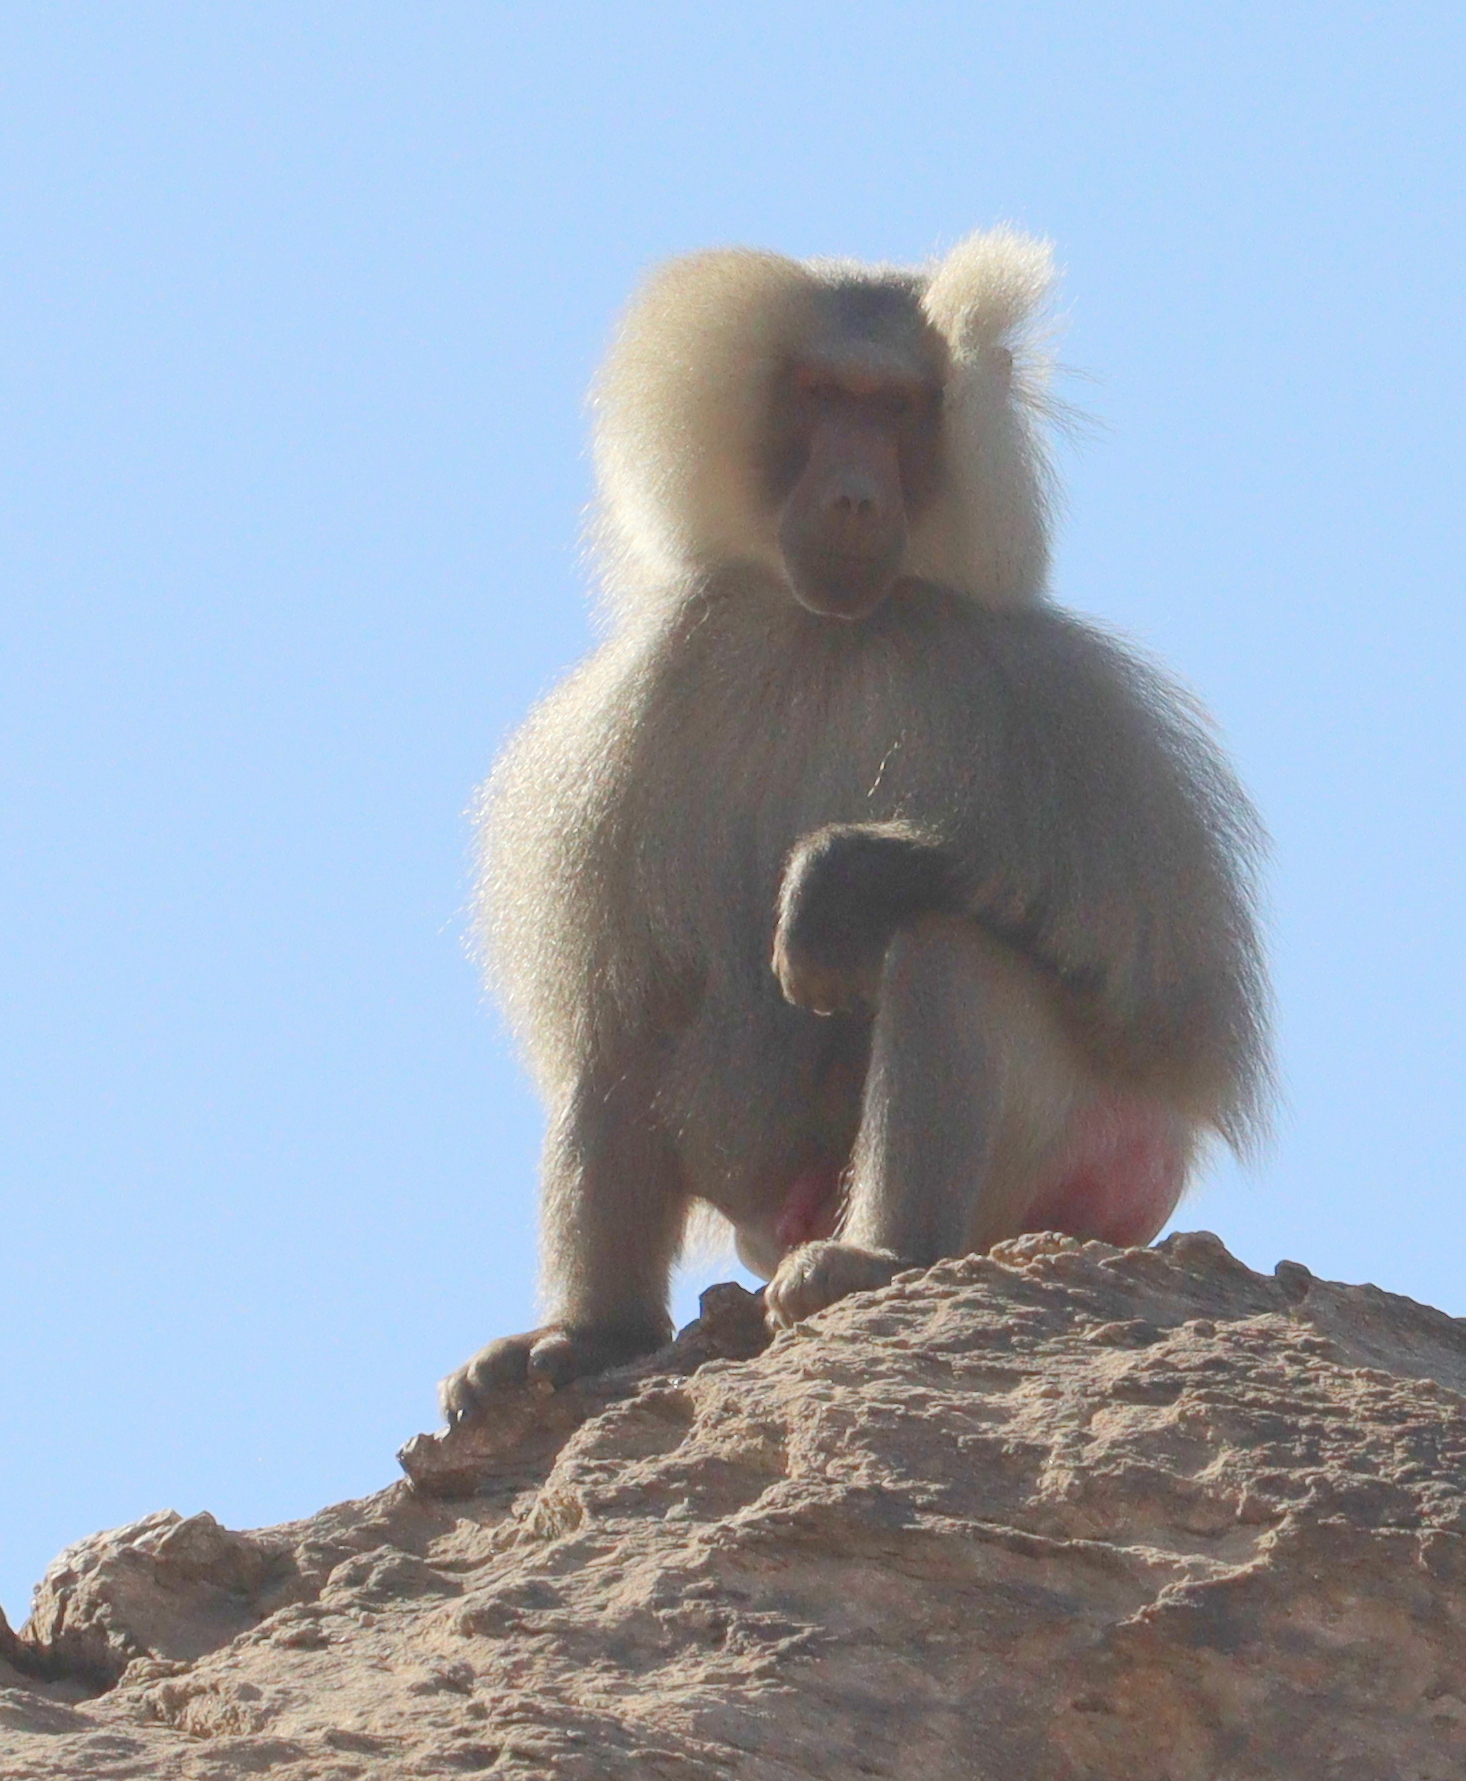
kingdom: Animalia
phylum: Chordata
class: Mammalia
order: Primates
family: Cercopithecidae
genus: Papio
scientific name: Papio hamadryas
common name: Hamadryas baboon
